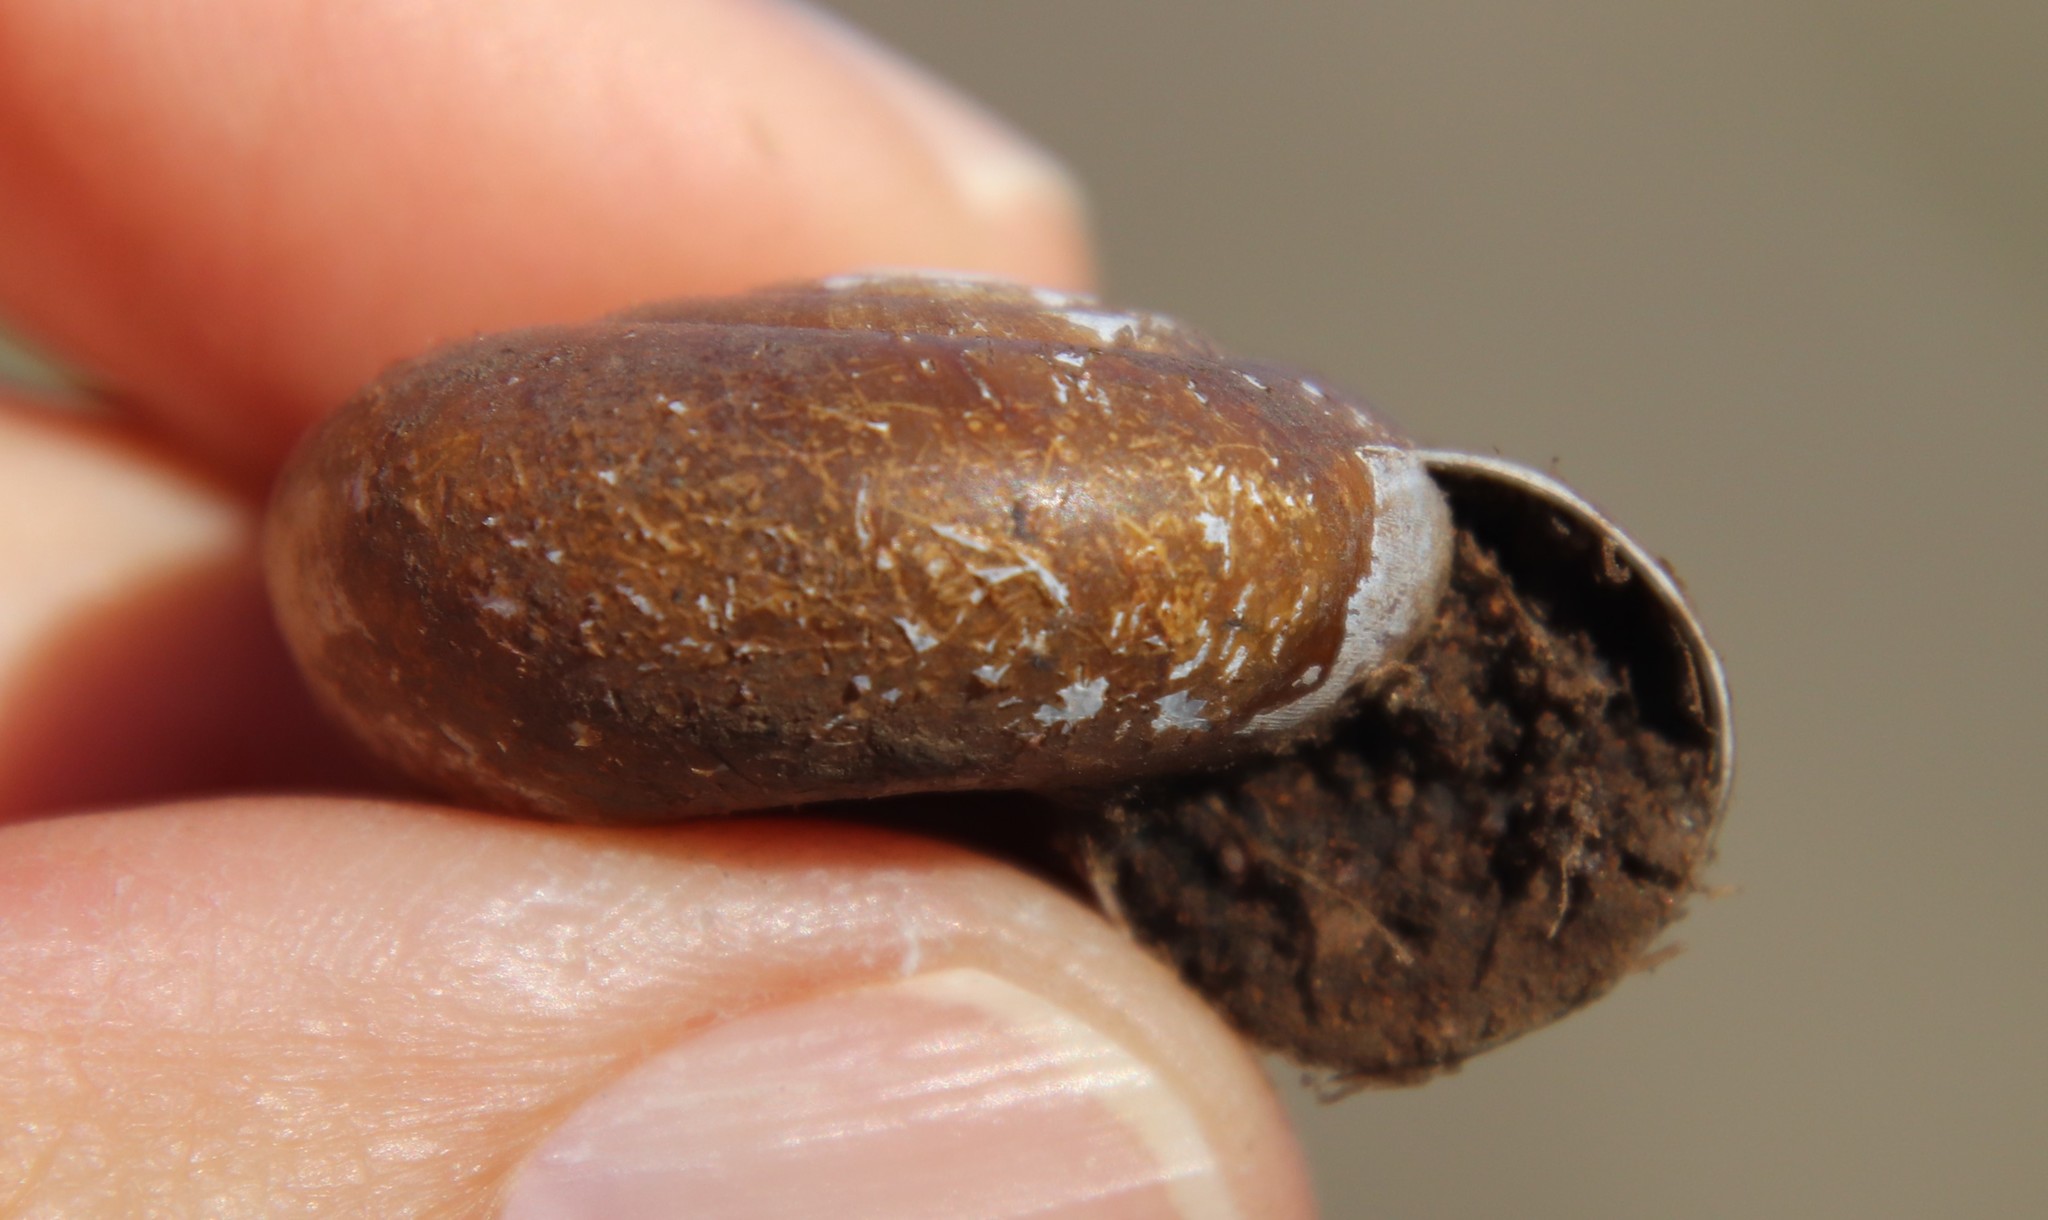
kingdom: Animalia
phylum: Mollusca
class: Gastropoda
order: Stylommatophora
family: Megomphicidae
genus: Glyptostoma
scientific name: Glyptostoma newberryanum
